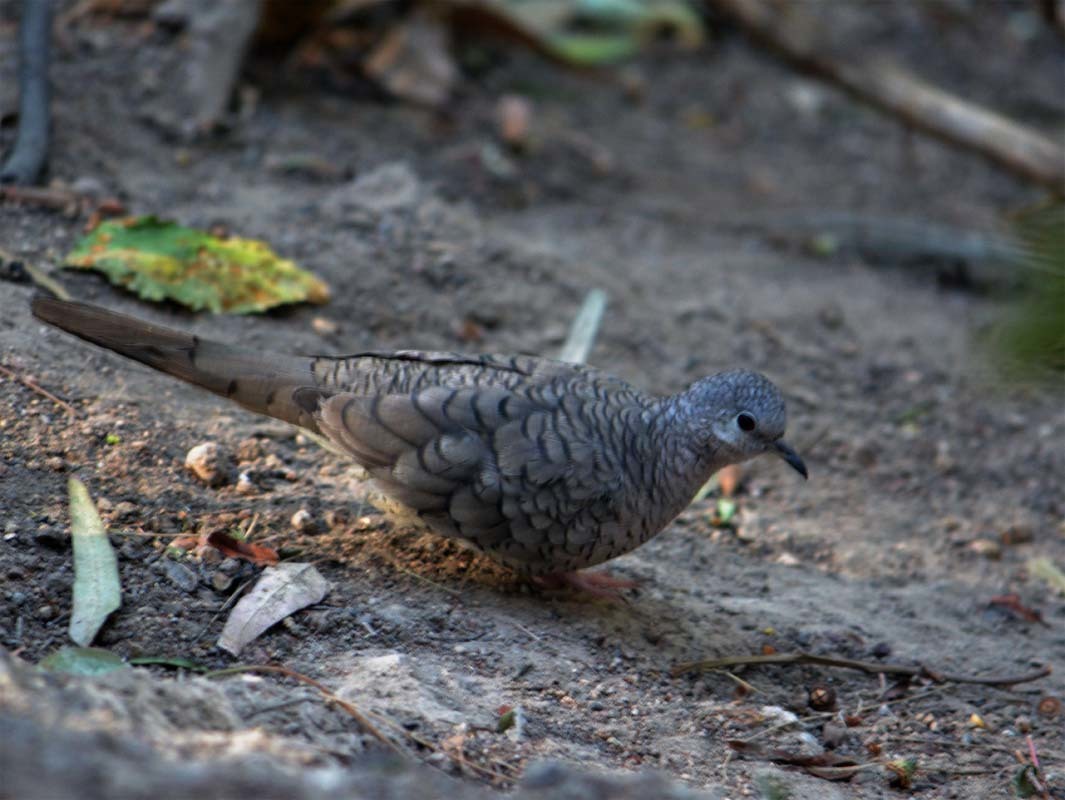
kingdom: Animalia
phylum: Chordata
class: Aves
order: Columbiformes
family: Columbidae
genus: Columbina
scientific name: Columbina inca
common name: Inca dove
